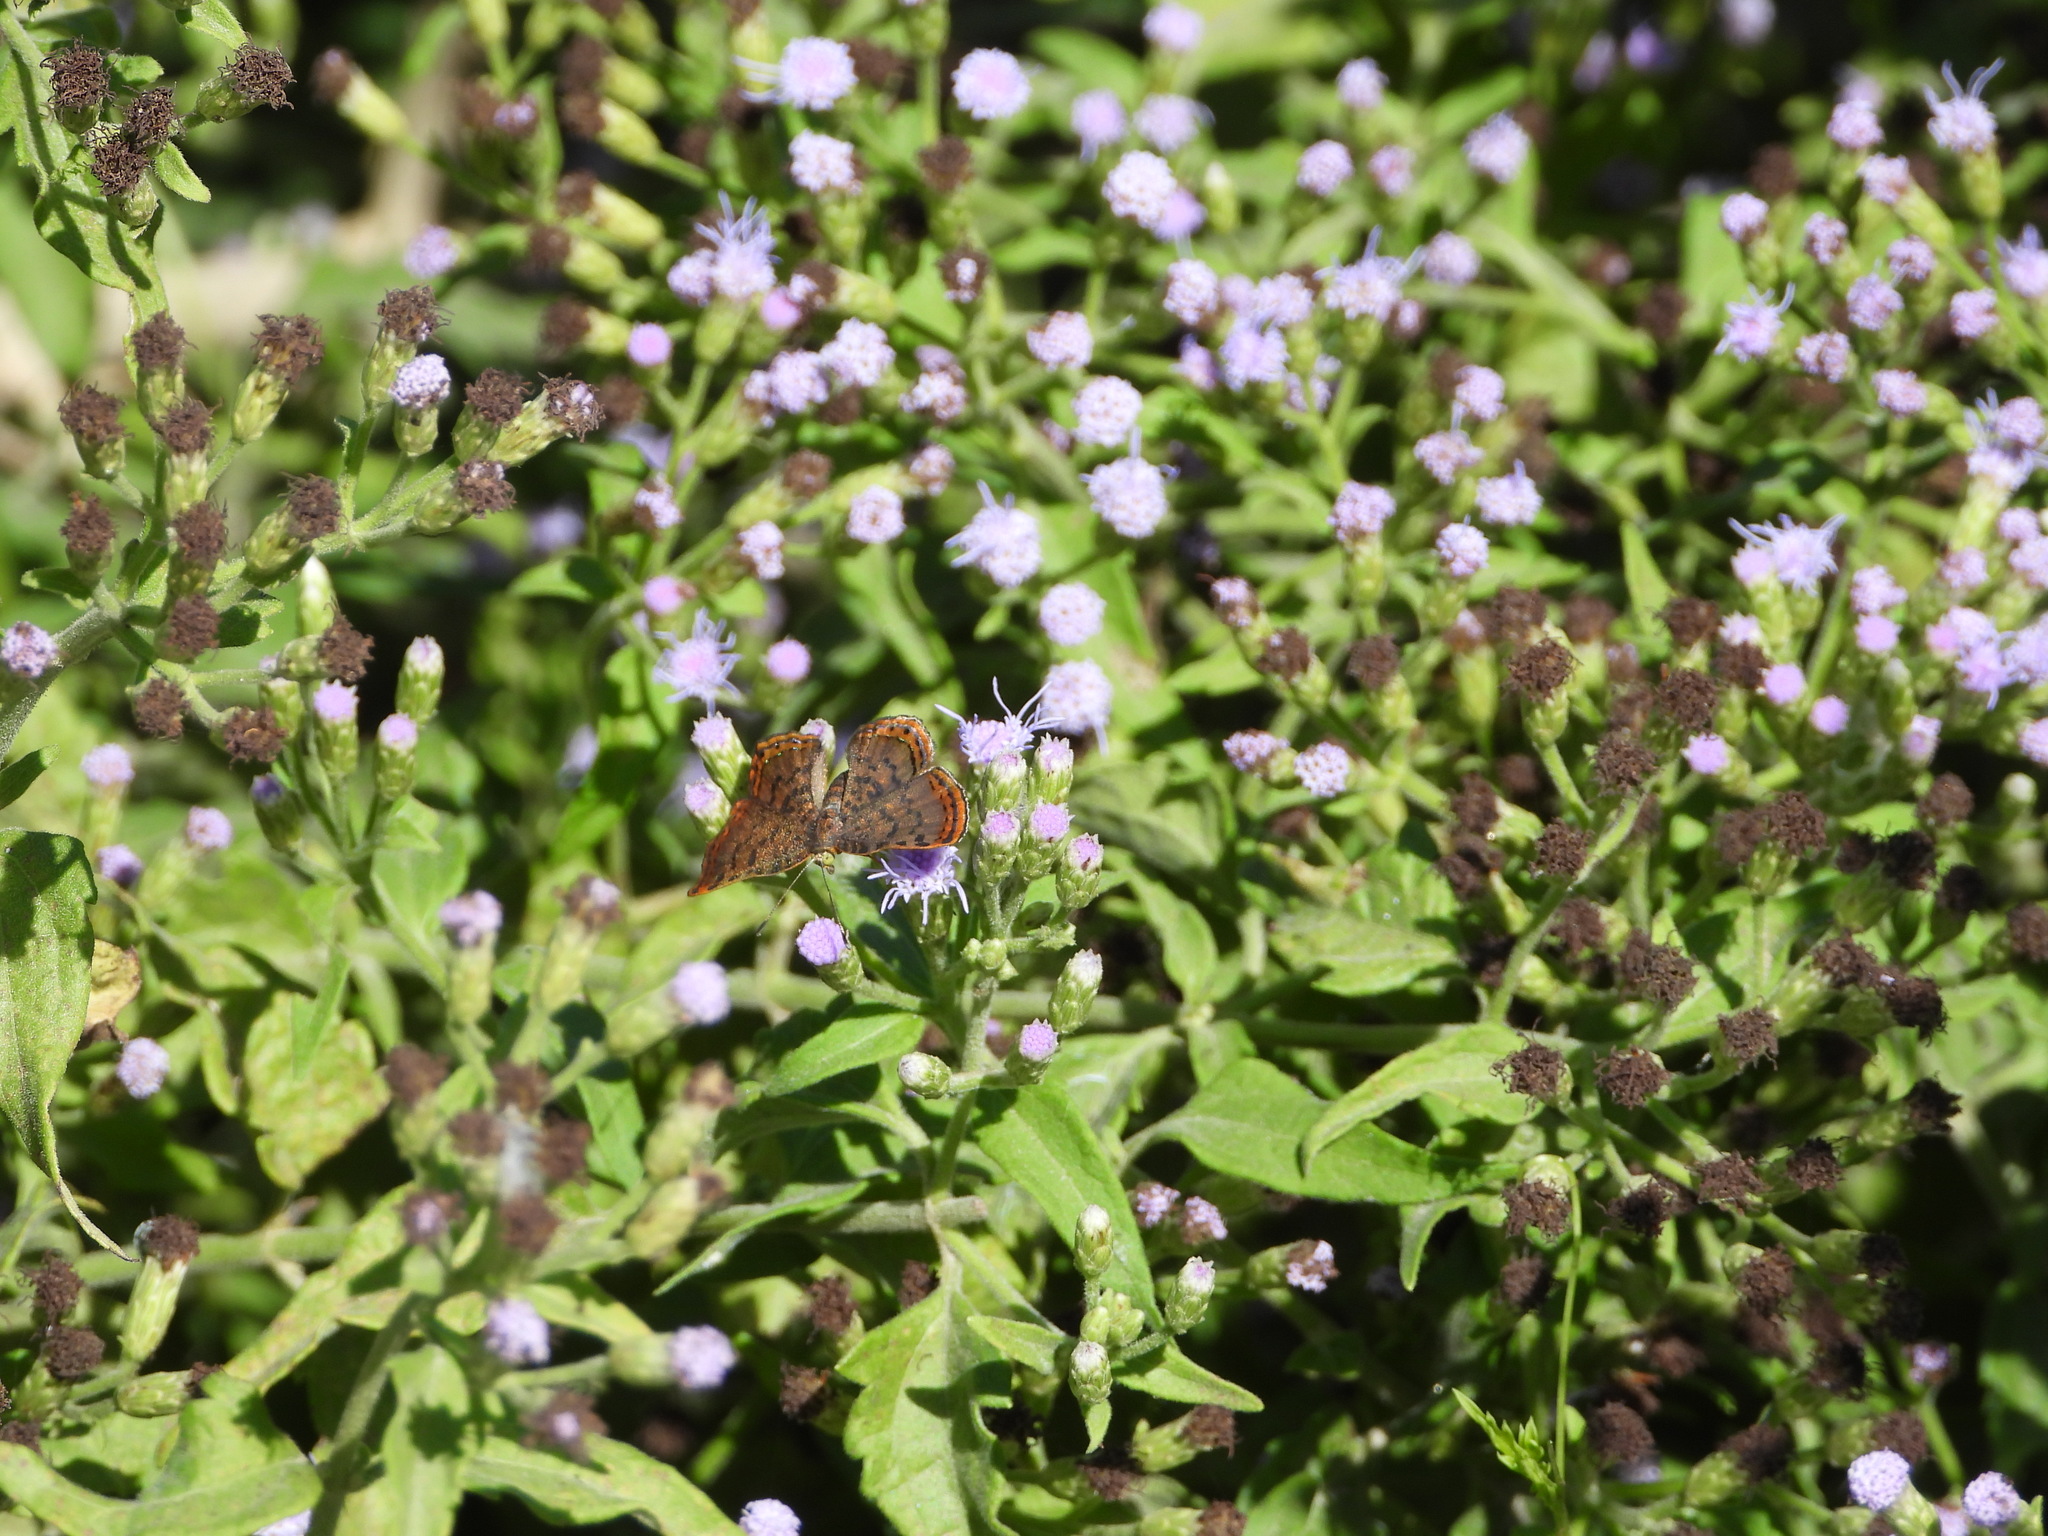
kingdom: Animalia
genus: Caria
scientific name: Caria ino
